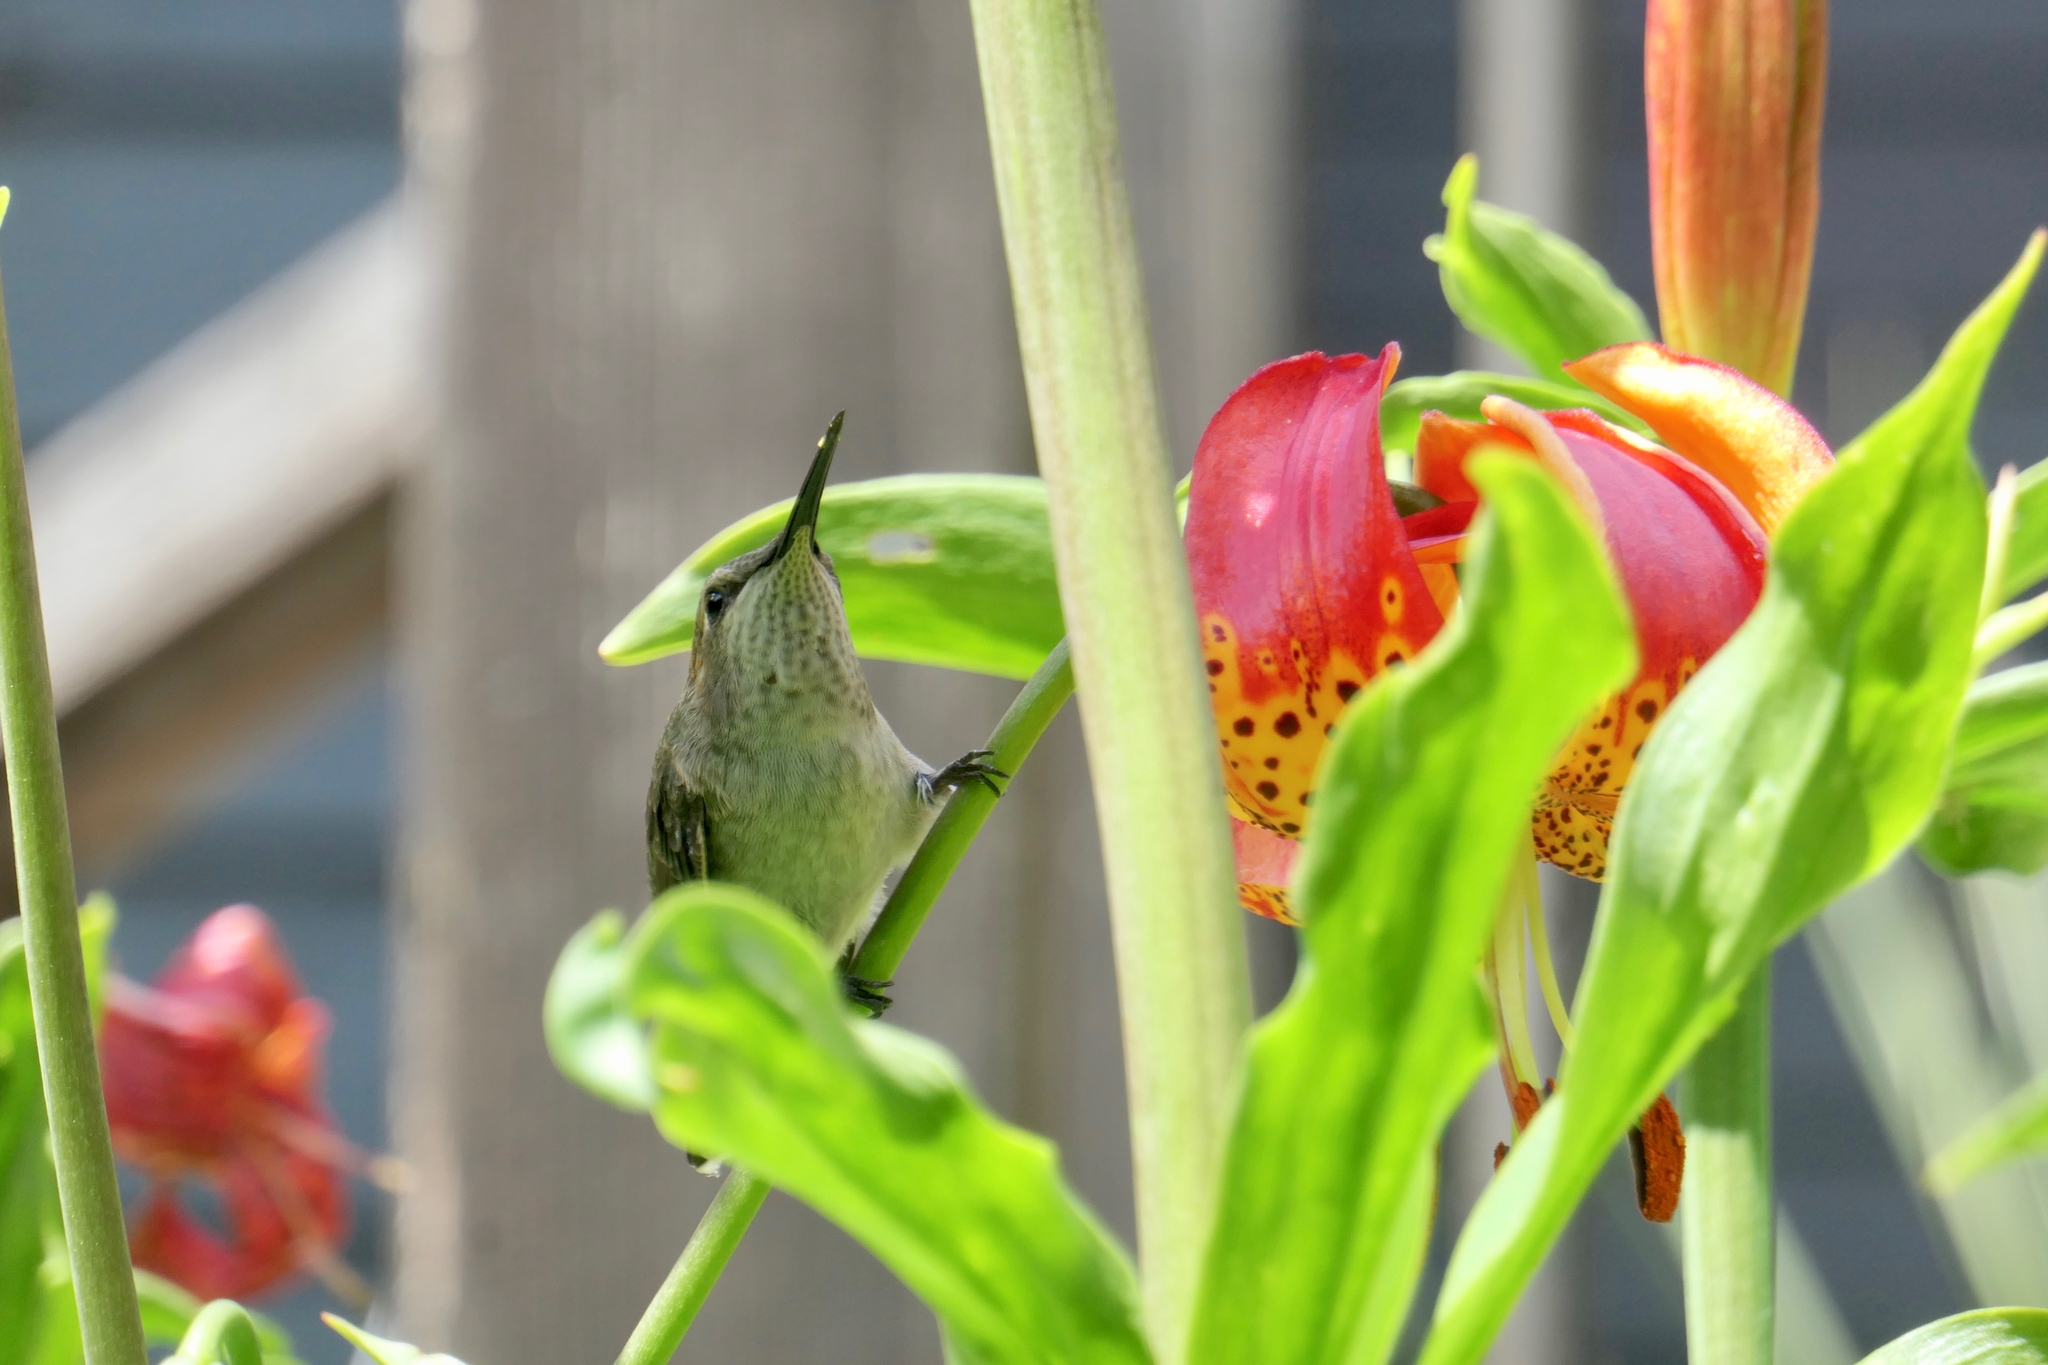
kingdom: Animalia
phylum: Chordata
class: Aves
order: Apodiformes
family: Trochilidae
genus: Calypte
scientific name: Calypte anna
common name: Anna's hummingbird
